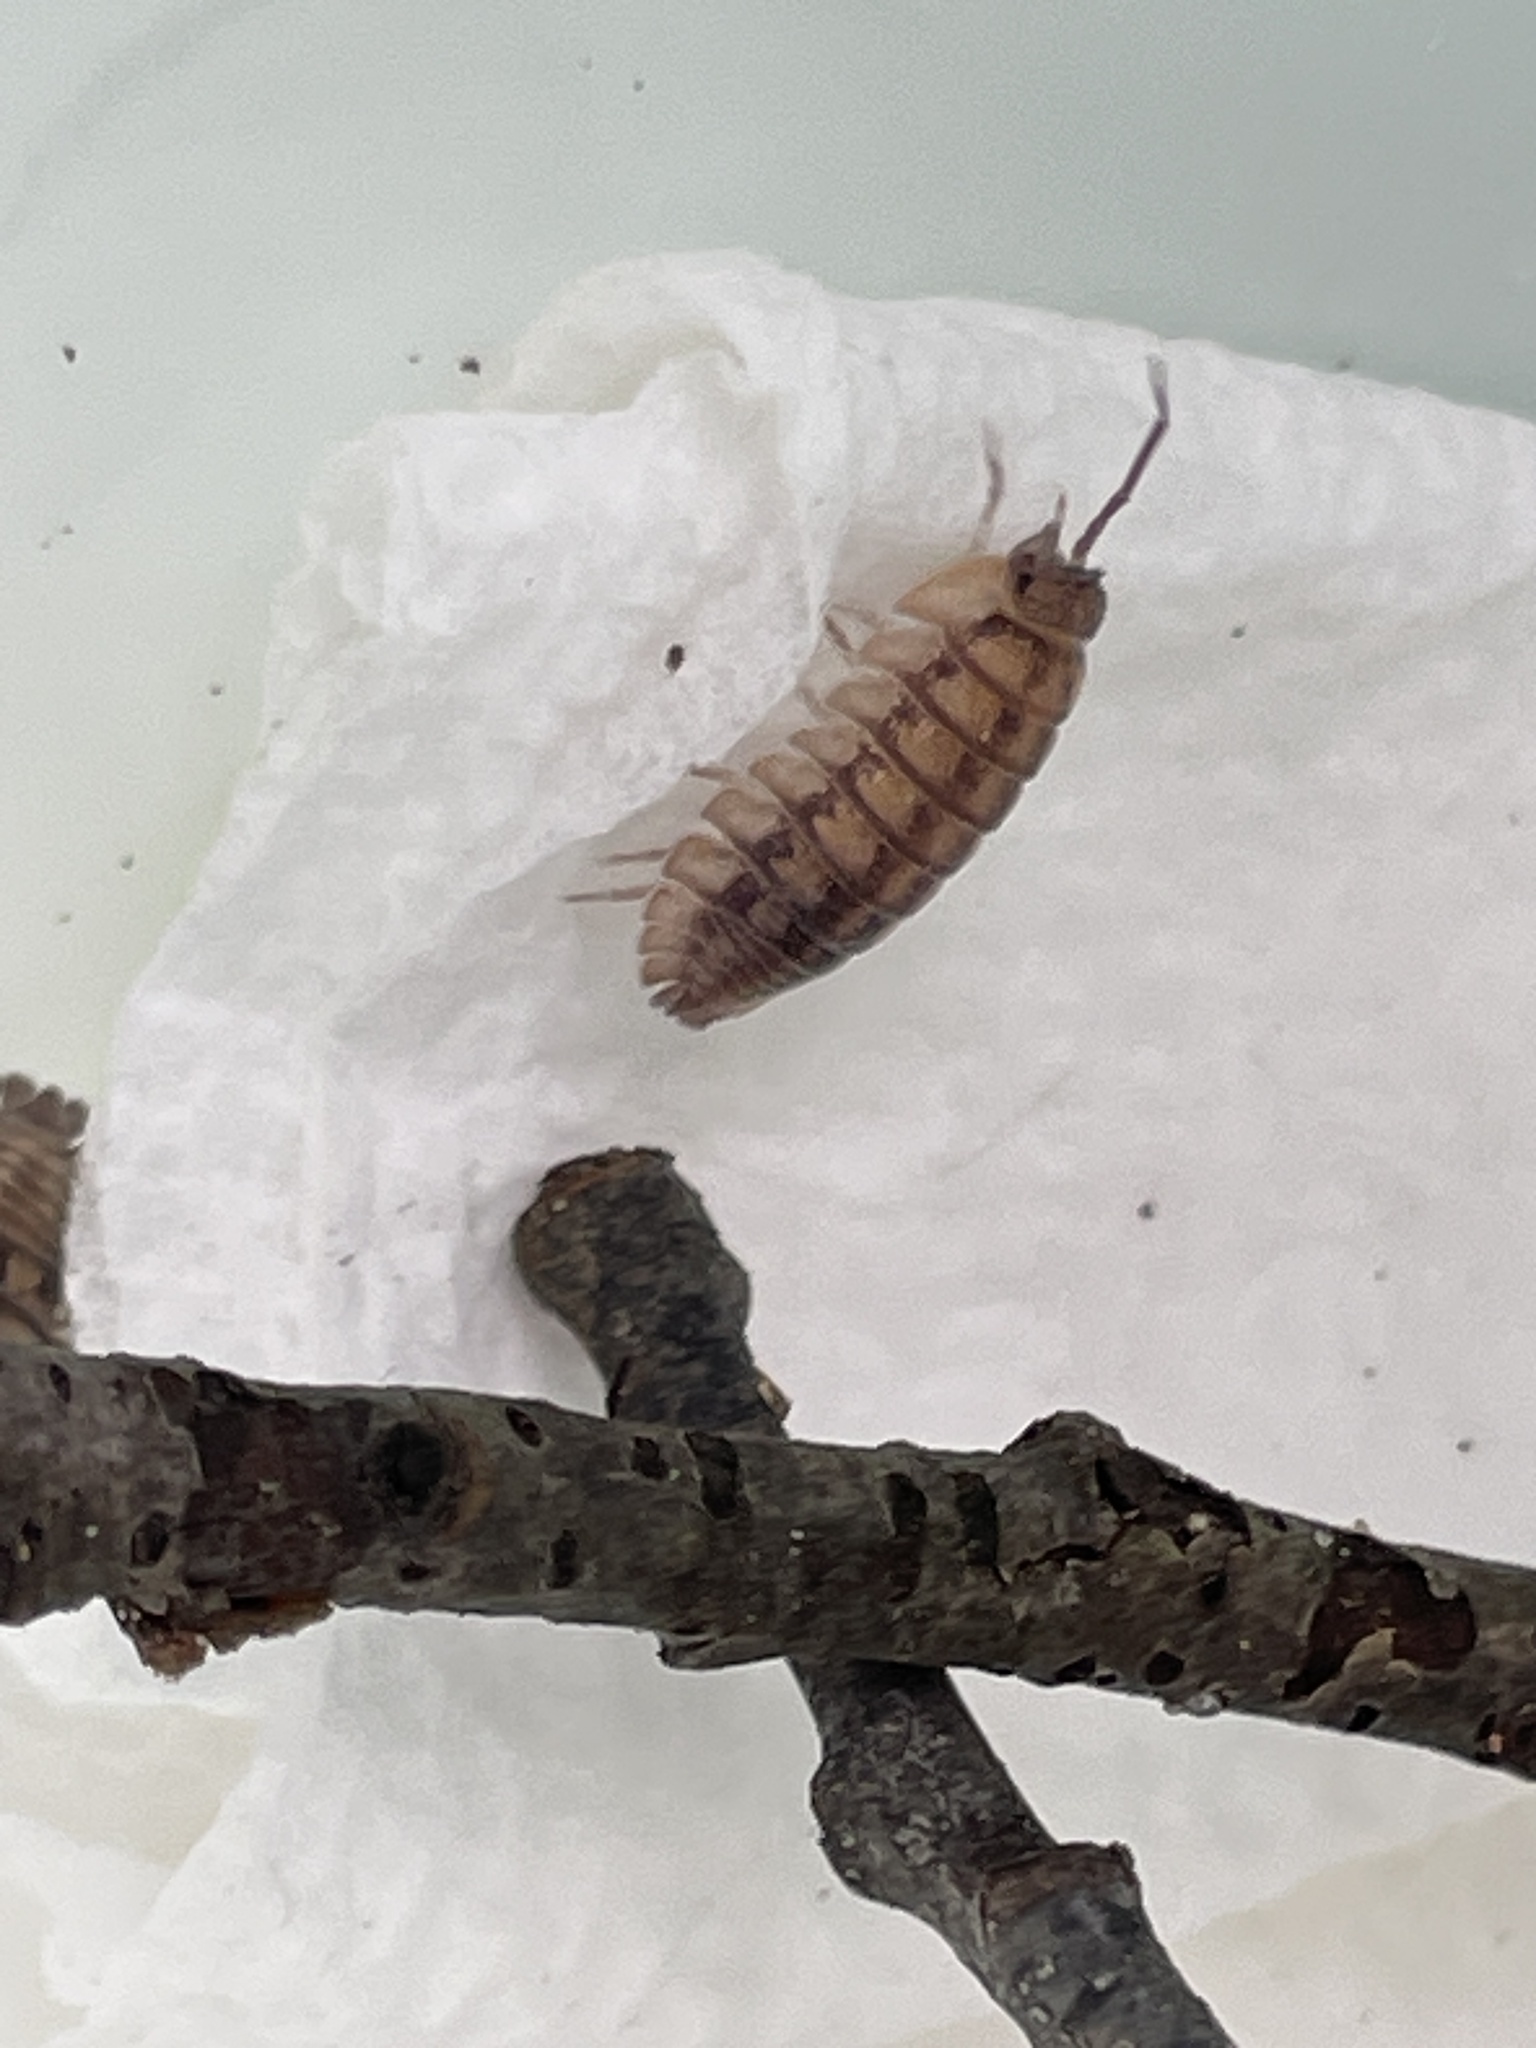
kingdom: Animalia
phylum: Arthropoda
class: Malacostraca
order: Isopoda
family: Armadillidiidae
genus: Armadillidium
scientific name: Armadillidium nasatum
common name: Isopod
